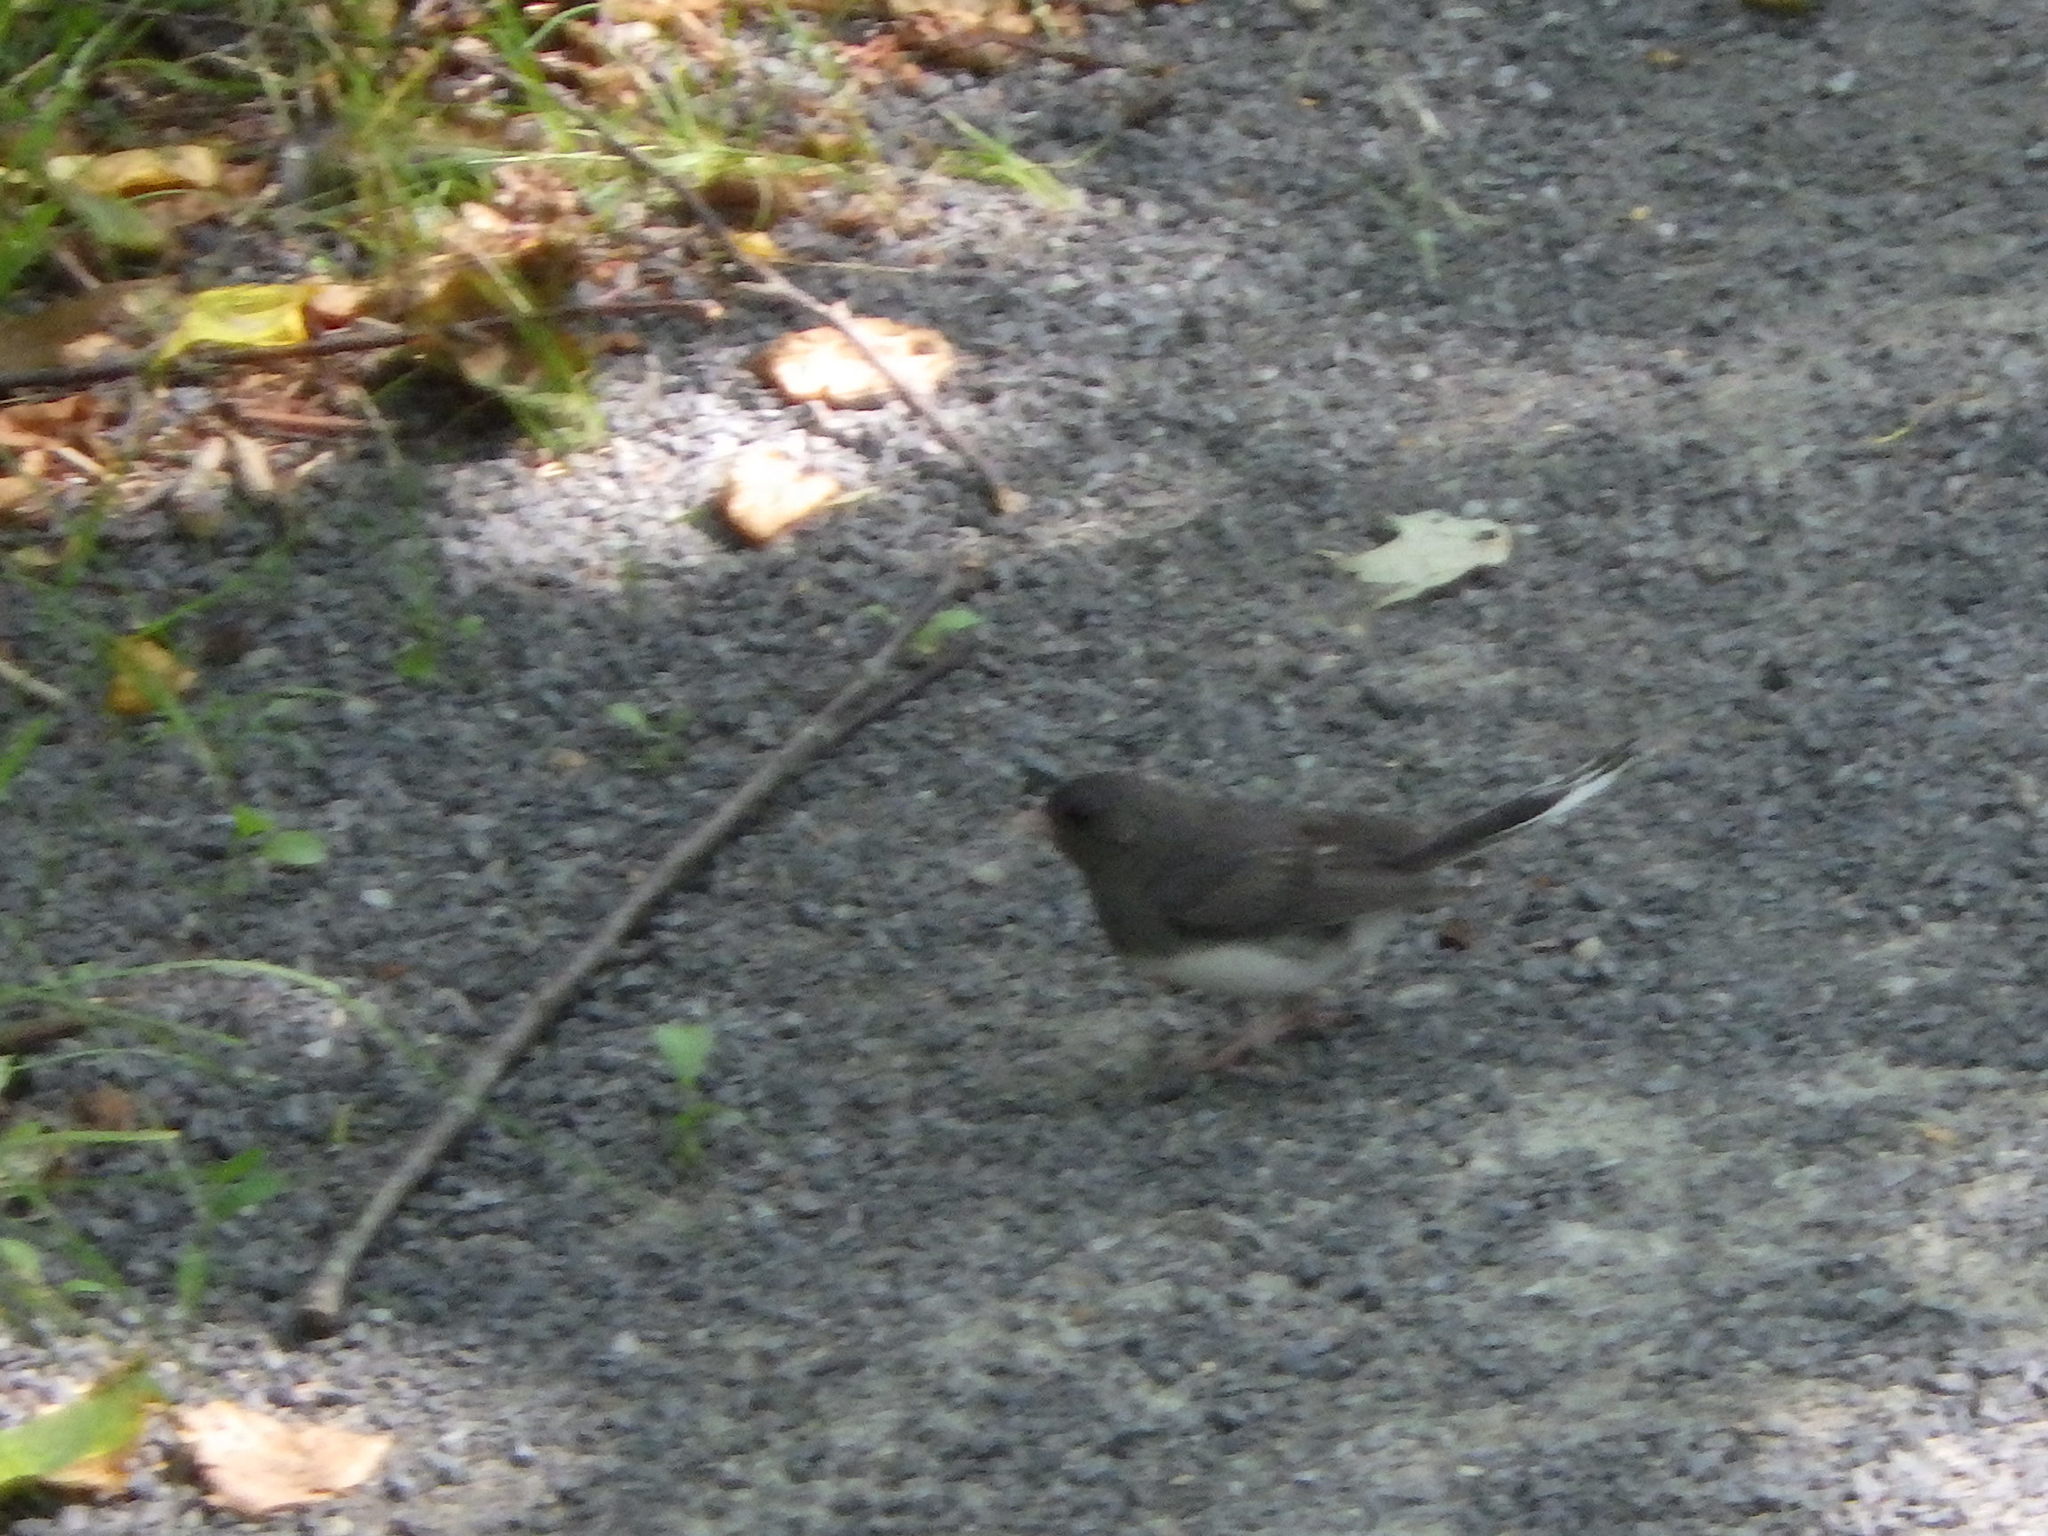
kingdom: Animalia
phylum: Chordata
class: Aves
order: Passeriformes
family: Passerellidae
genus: Junco
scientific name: Junco hyemalis
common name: Dark-eyed junco
